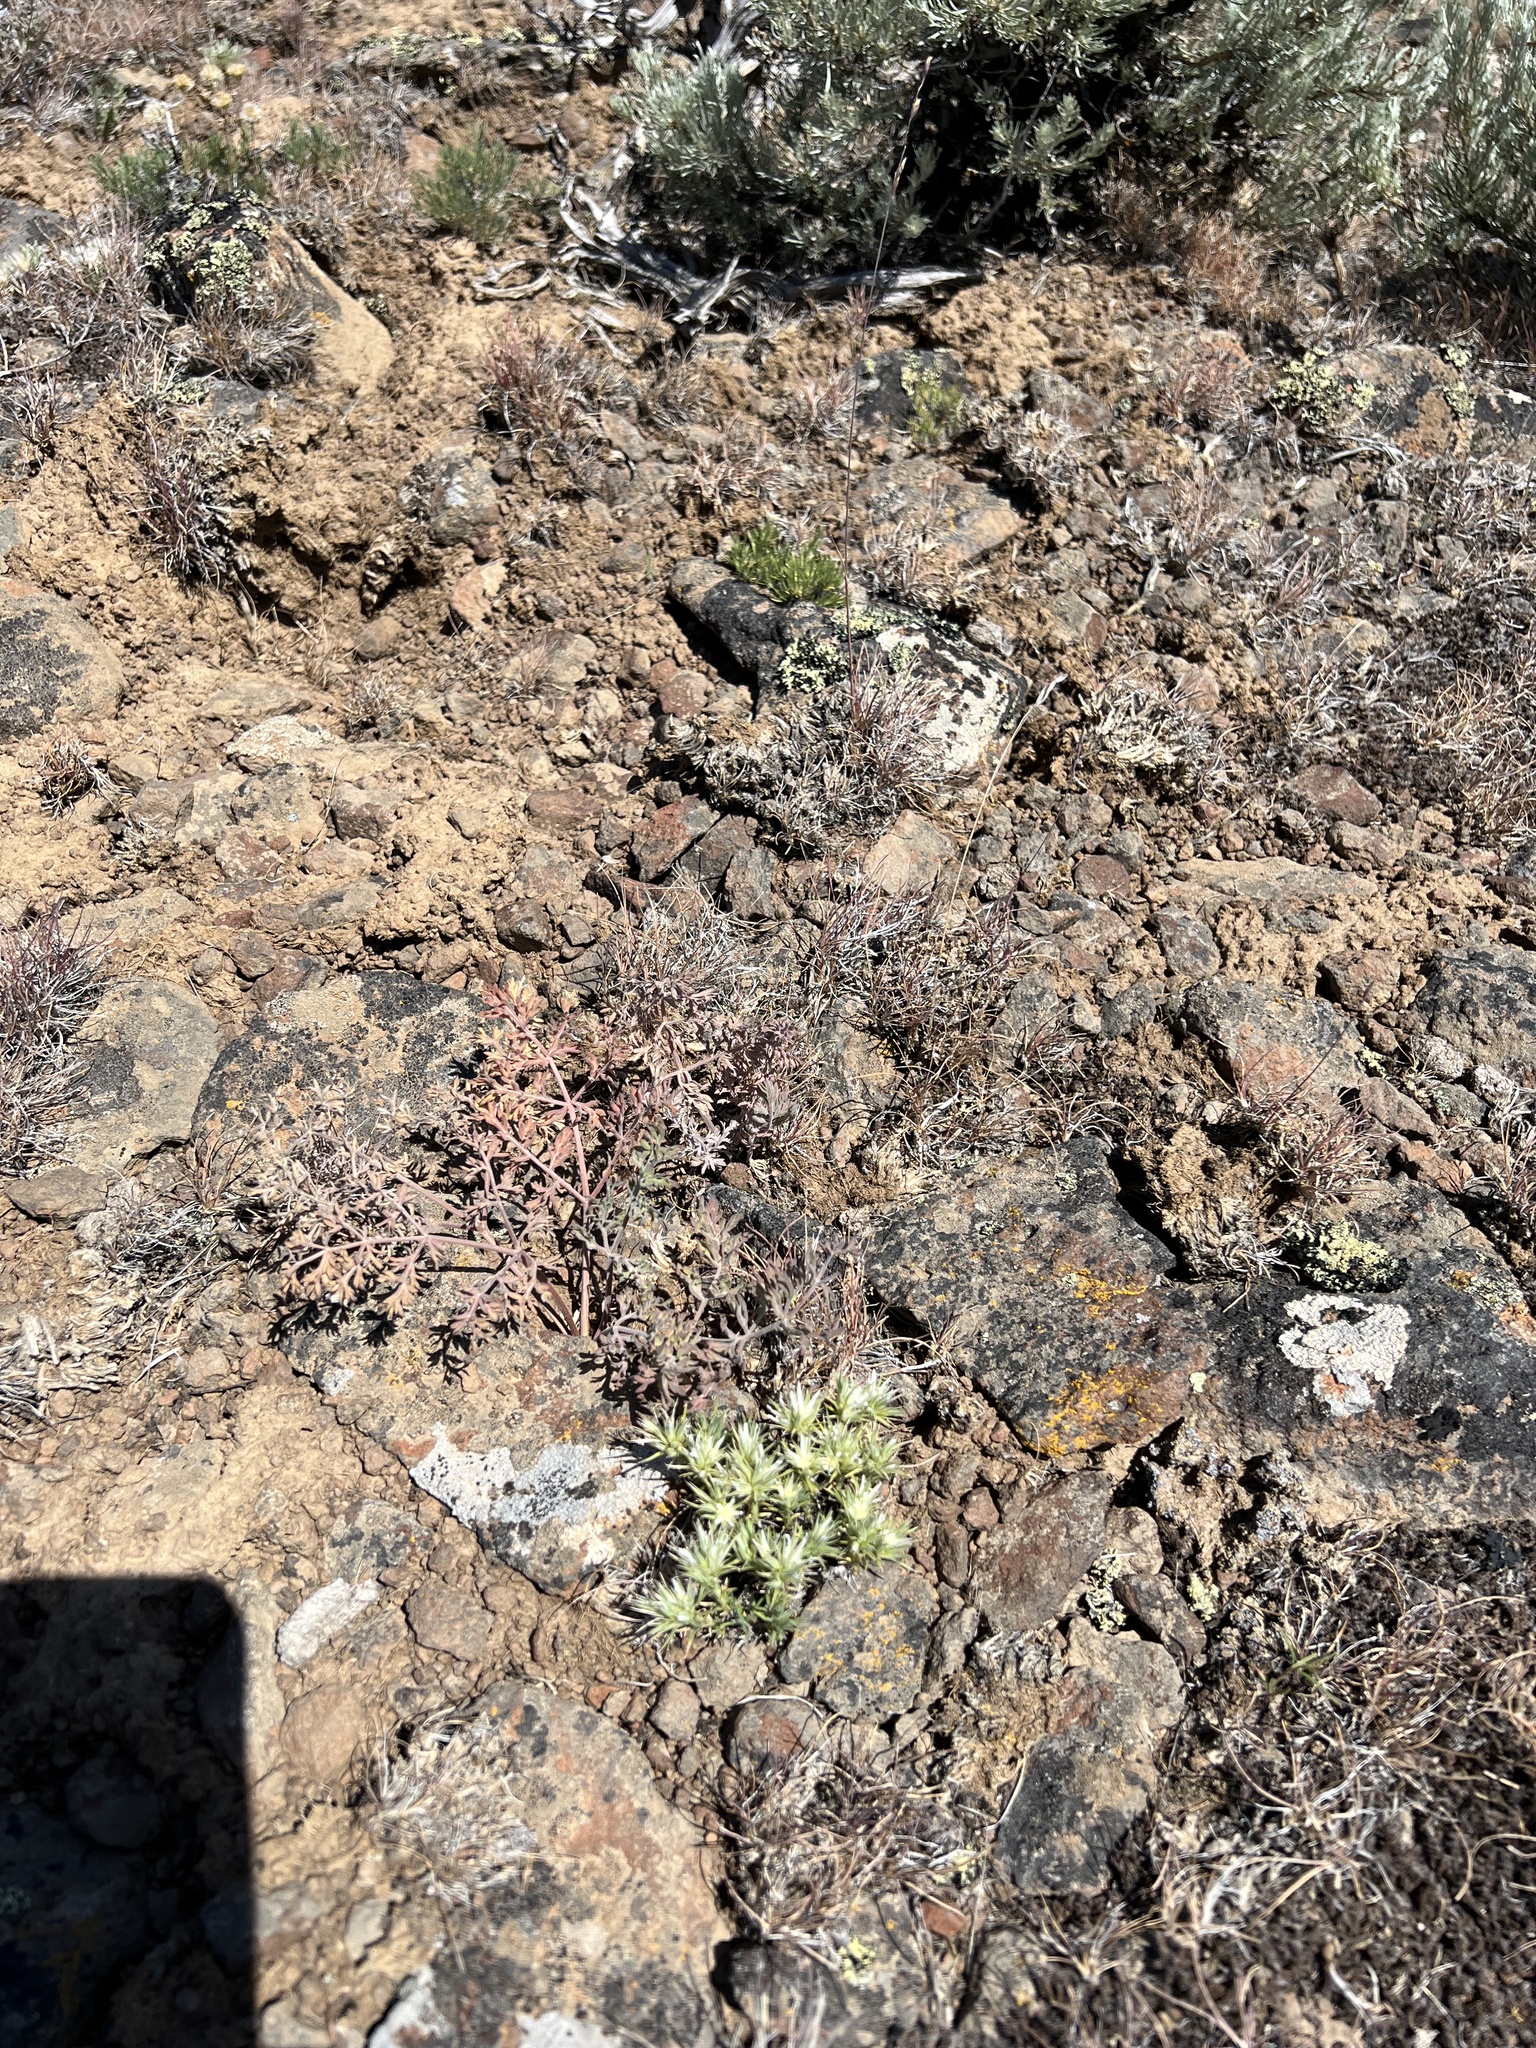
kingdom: Plantae
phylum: Tracheophyta
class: Magnoliopsida
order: Caryophyllales
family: Caryophyllaceae
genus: Eremogone
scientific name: Eremogone franklinii
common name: Franklin's sandwort
